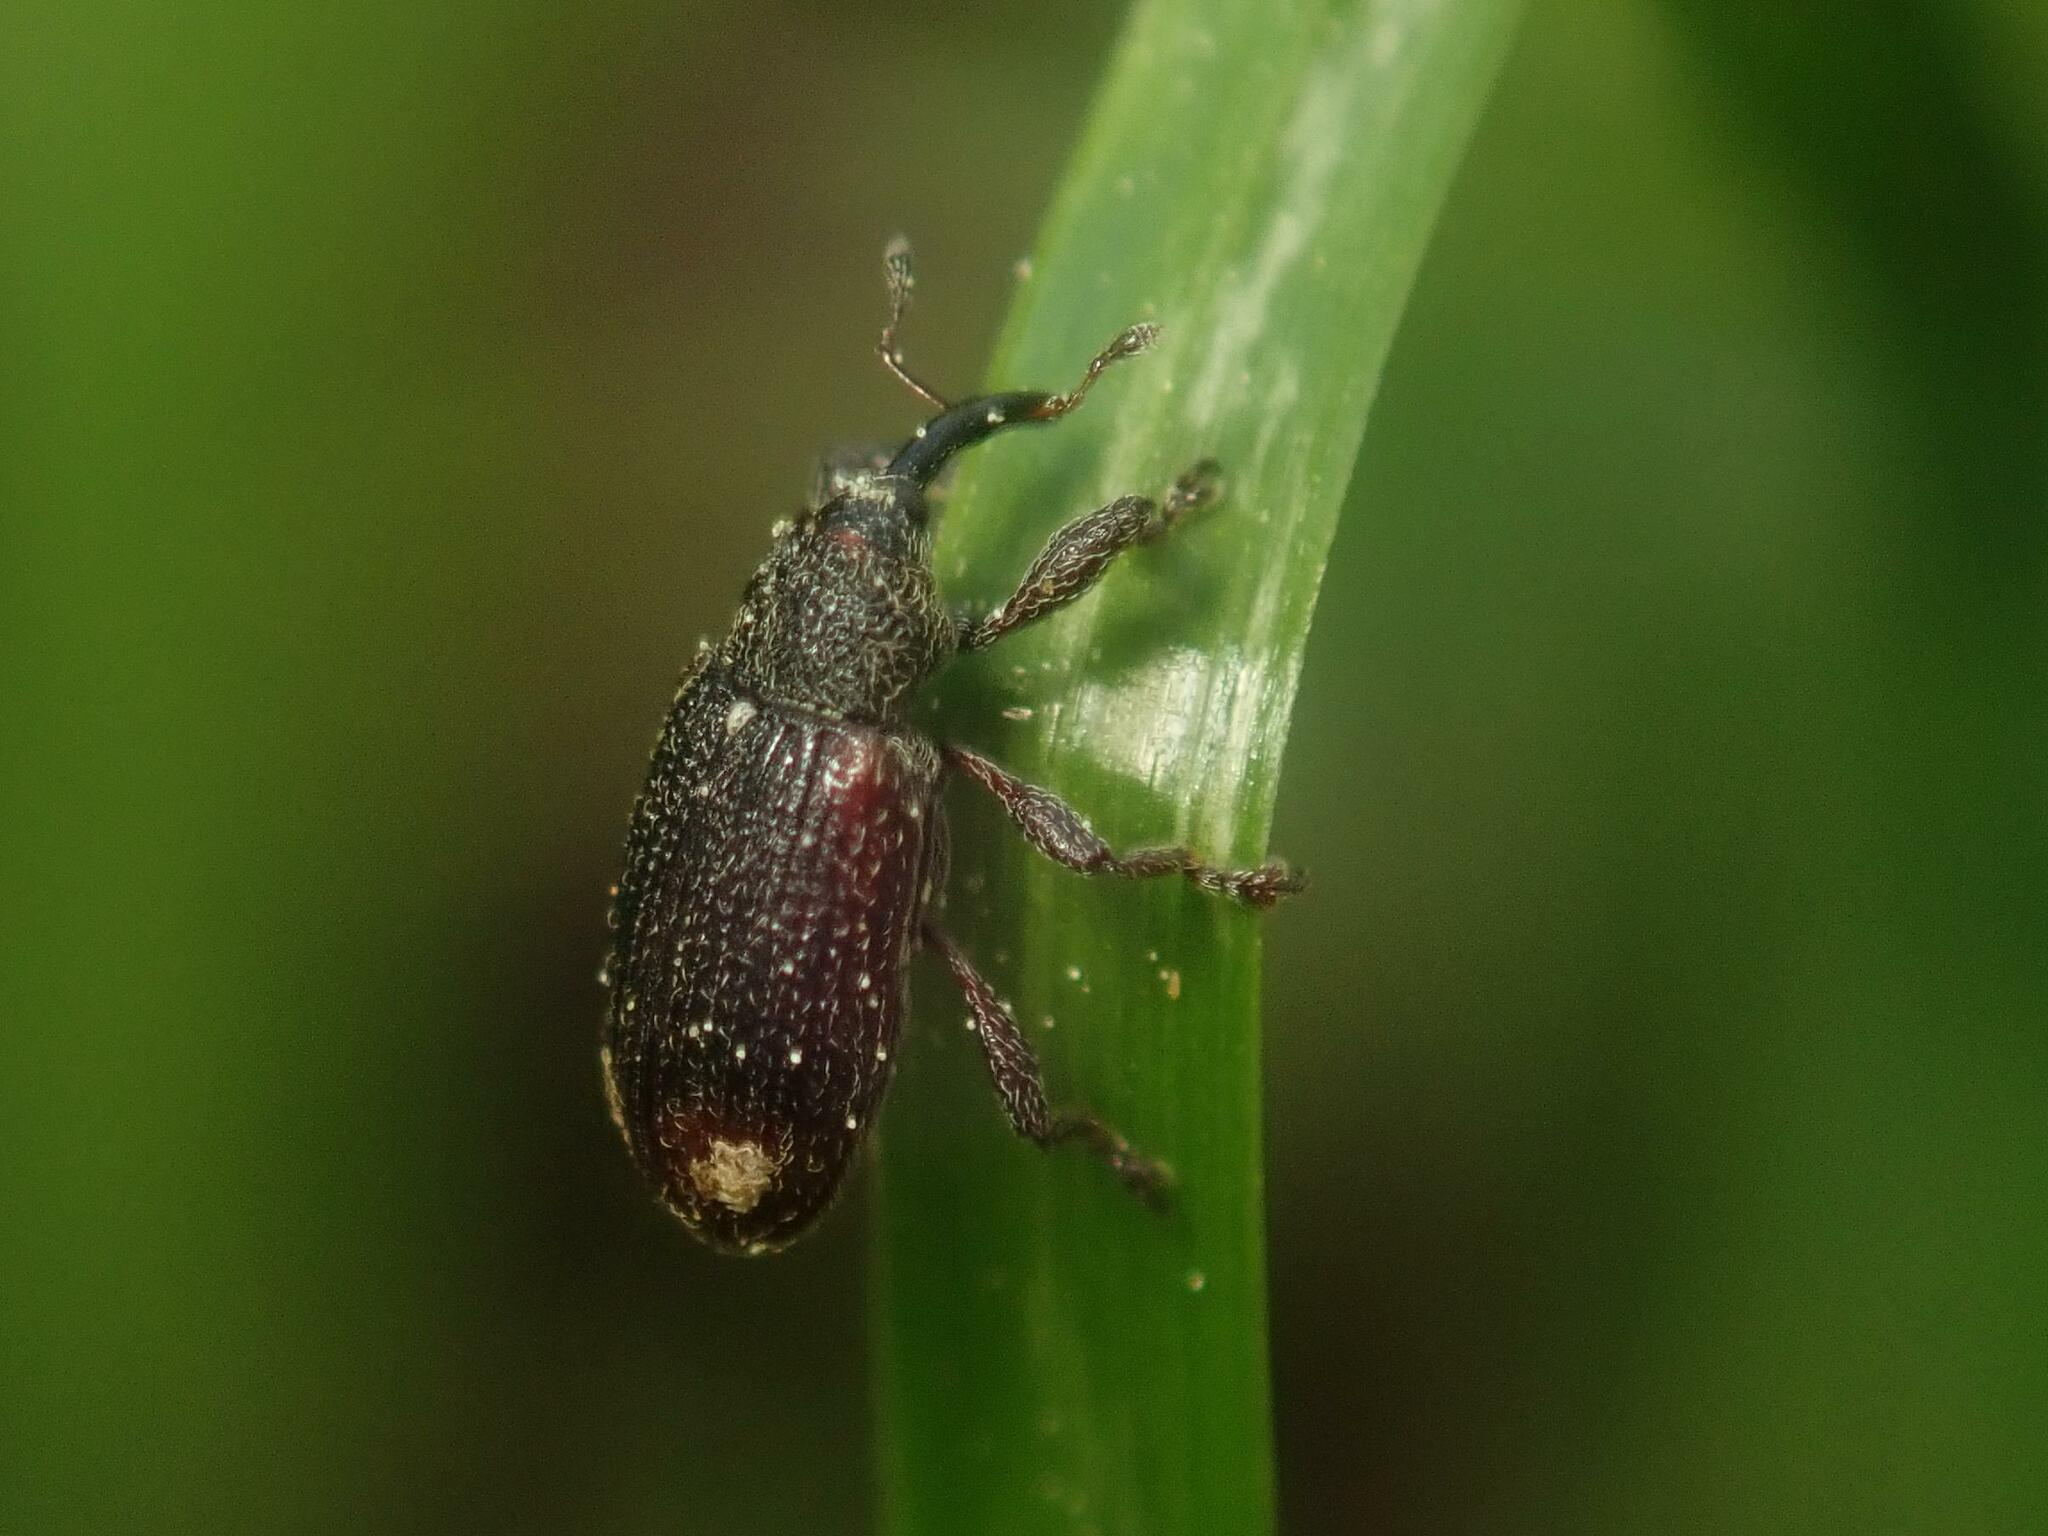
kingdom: Animalia
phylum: Arthropoda
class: Insecta
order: Coleoptera
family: Curculionidae
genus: Bradybatus
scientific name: Bradybatus kellneri
